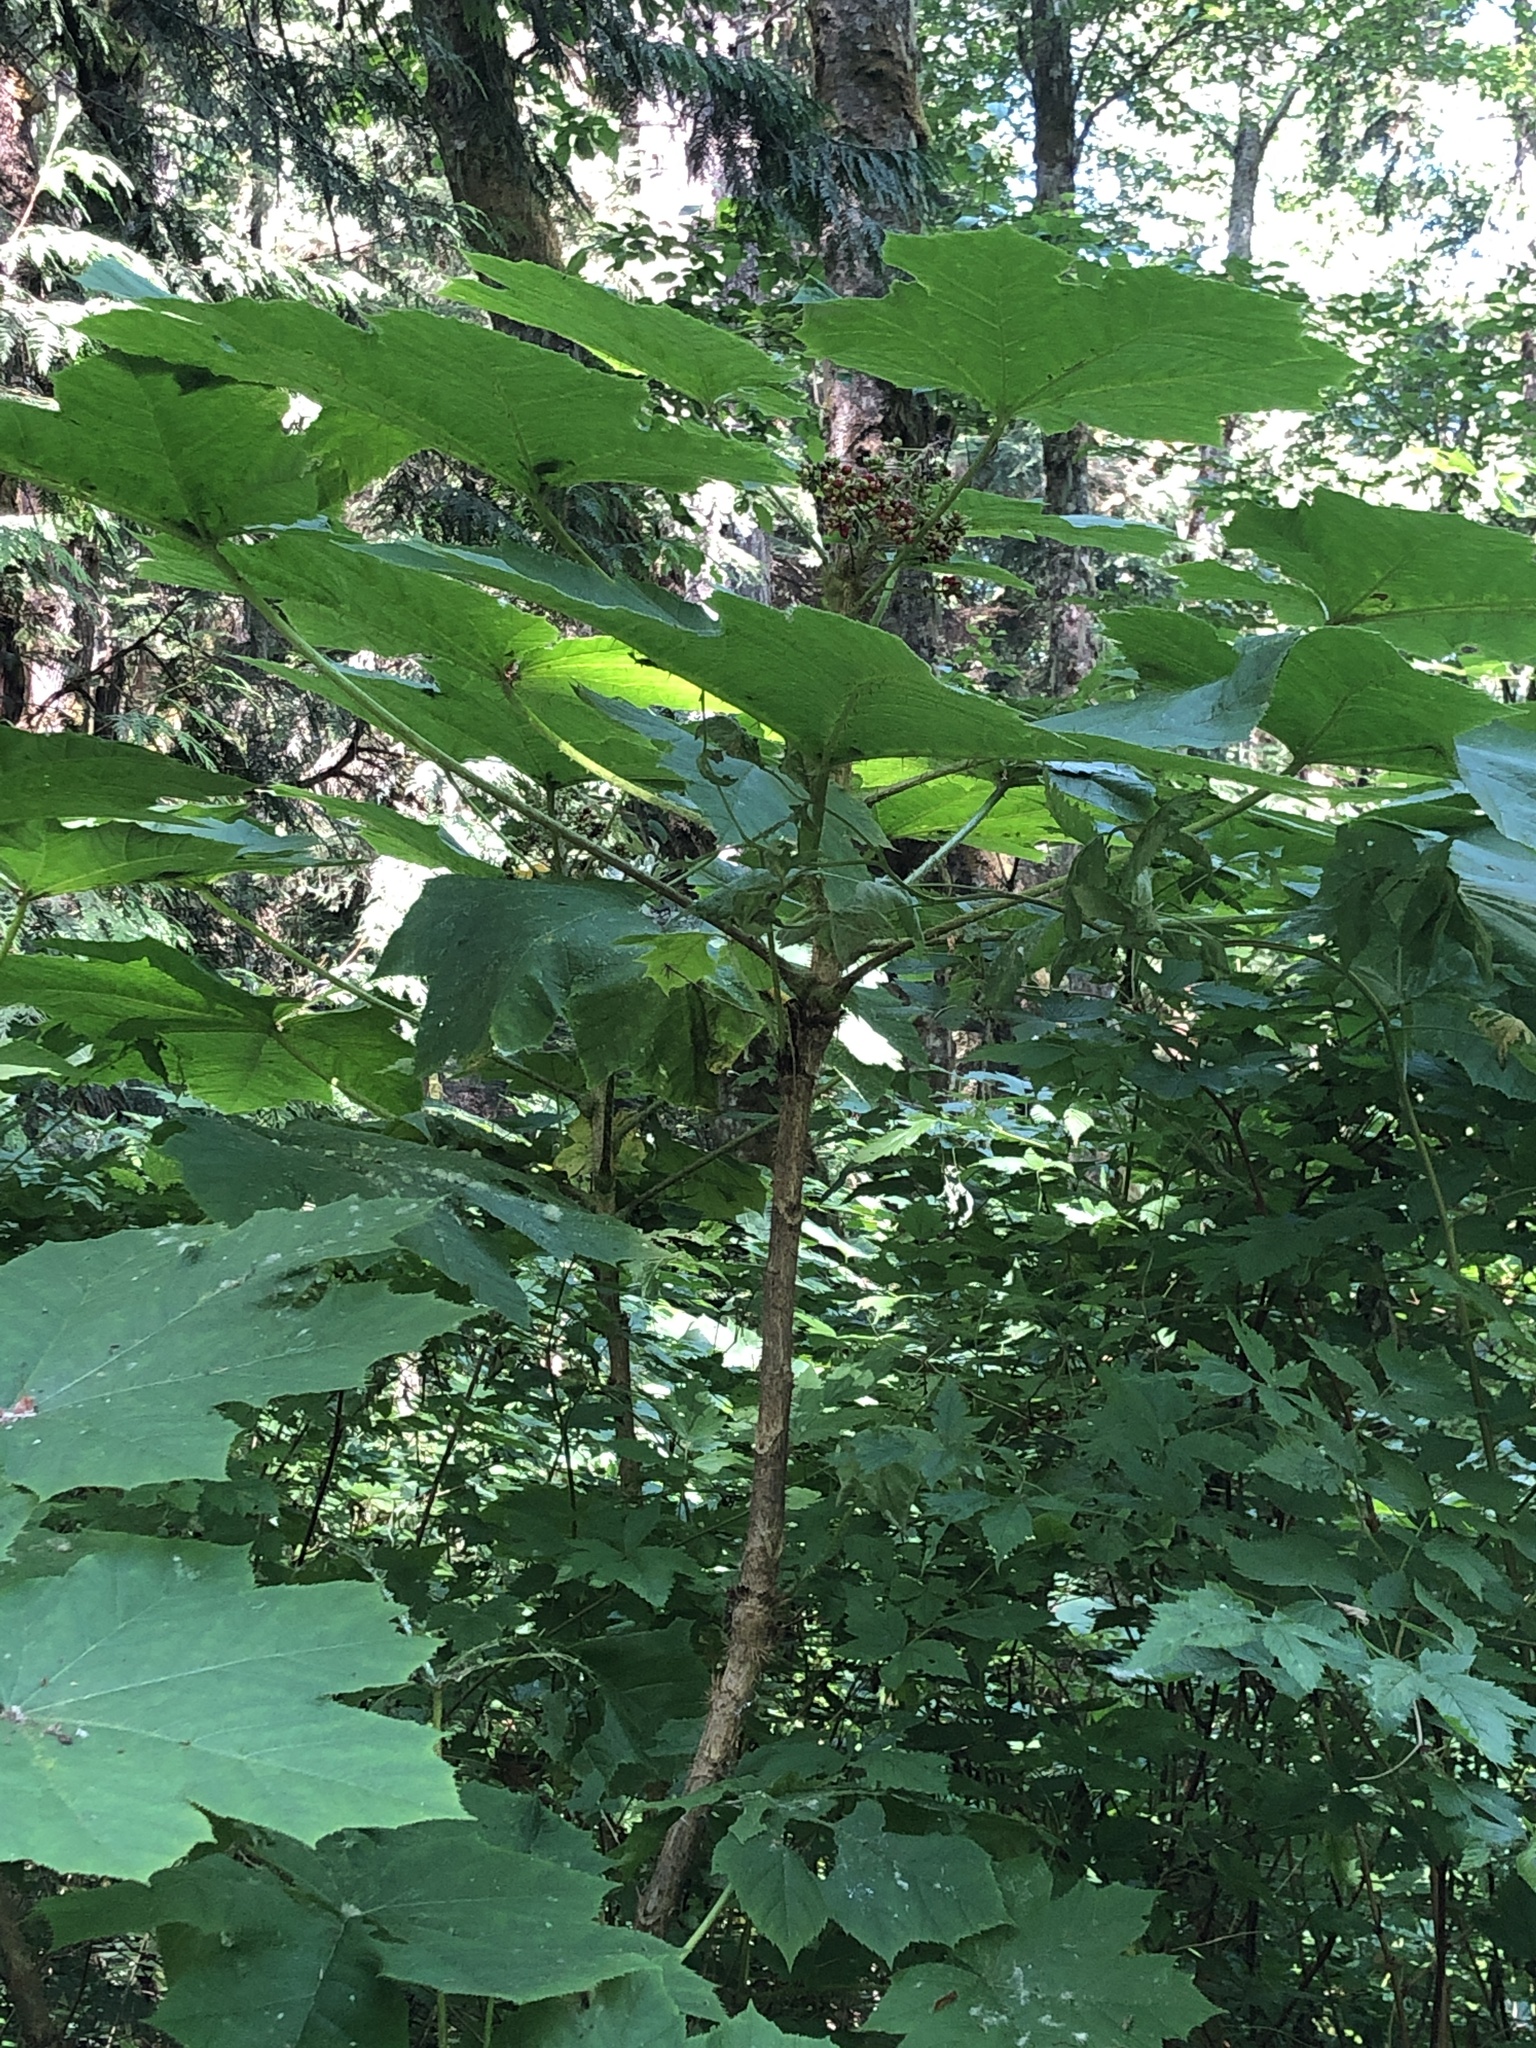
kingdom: Plantae
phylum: Tracheophyta
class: Magnoliopsida
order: Apiales
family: Araliaceae
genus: Oplopanax
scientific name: Oplopanax horridus
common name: Devil's walking-stick
